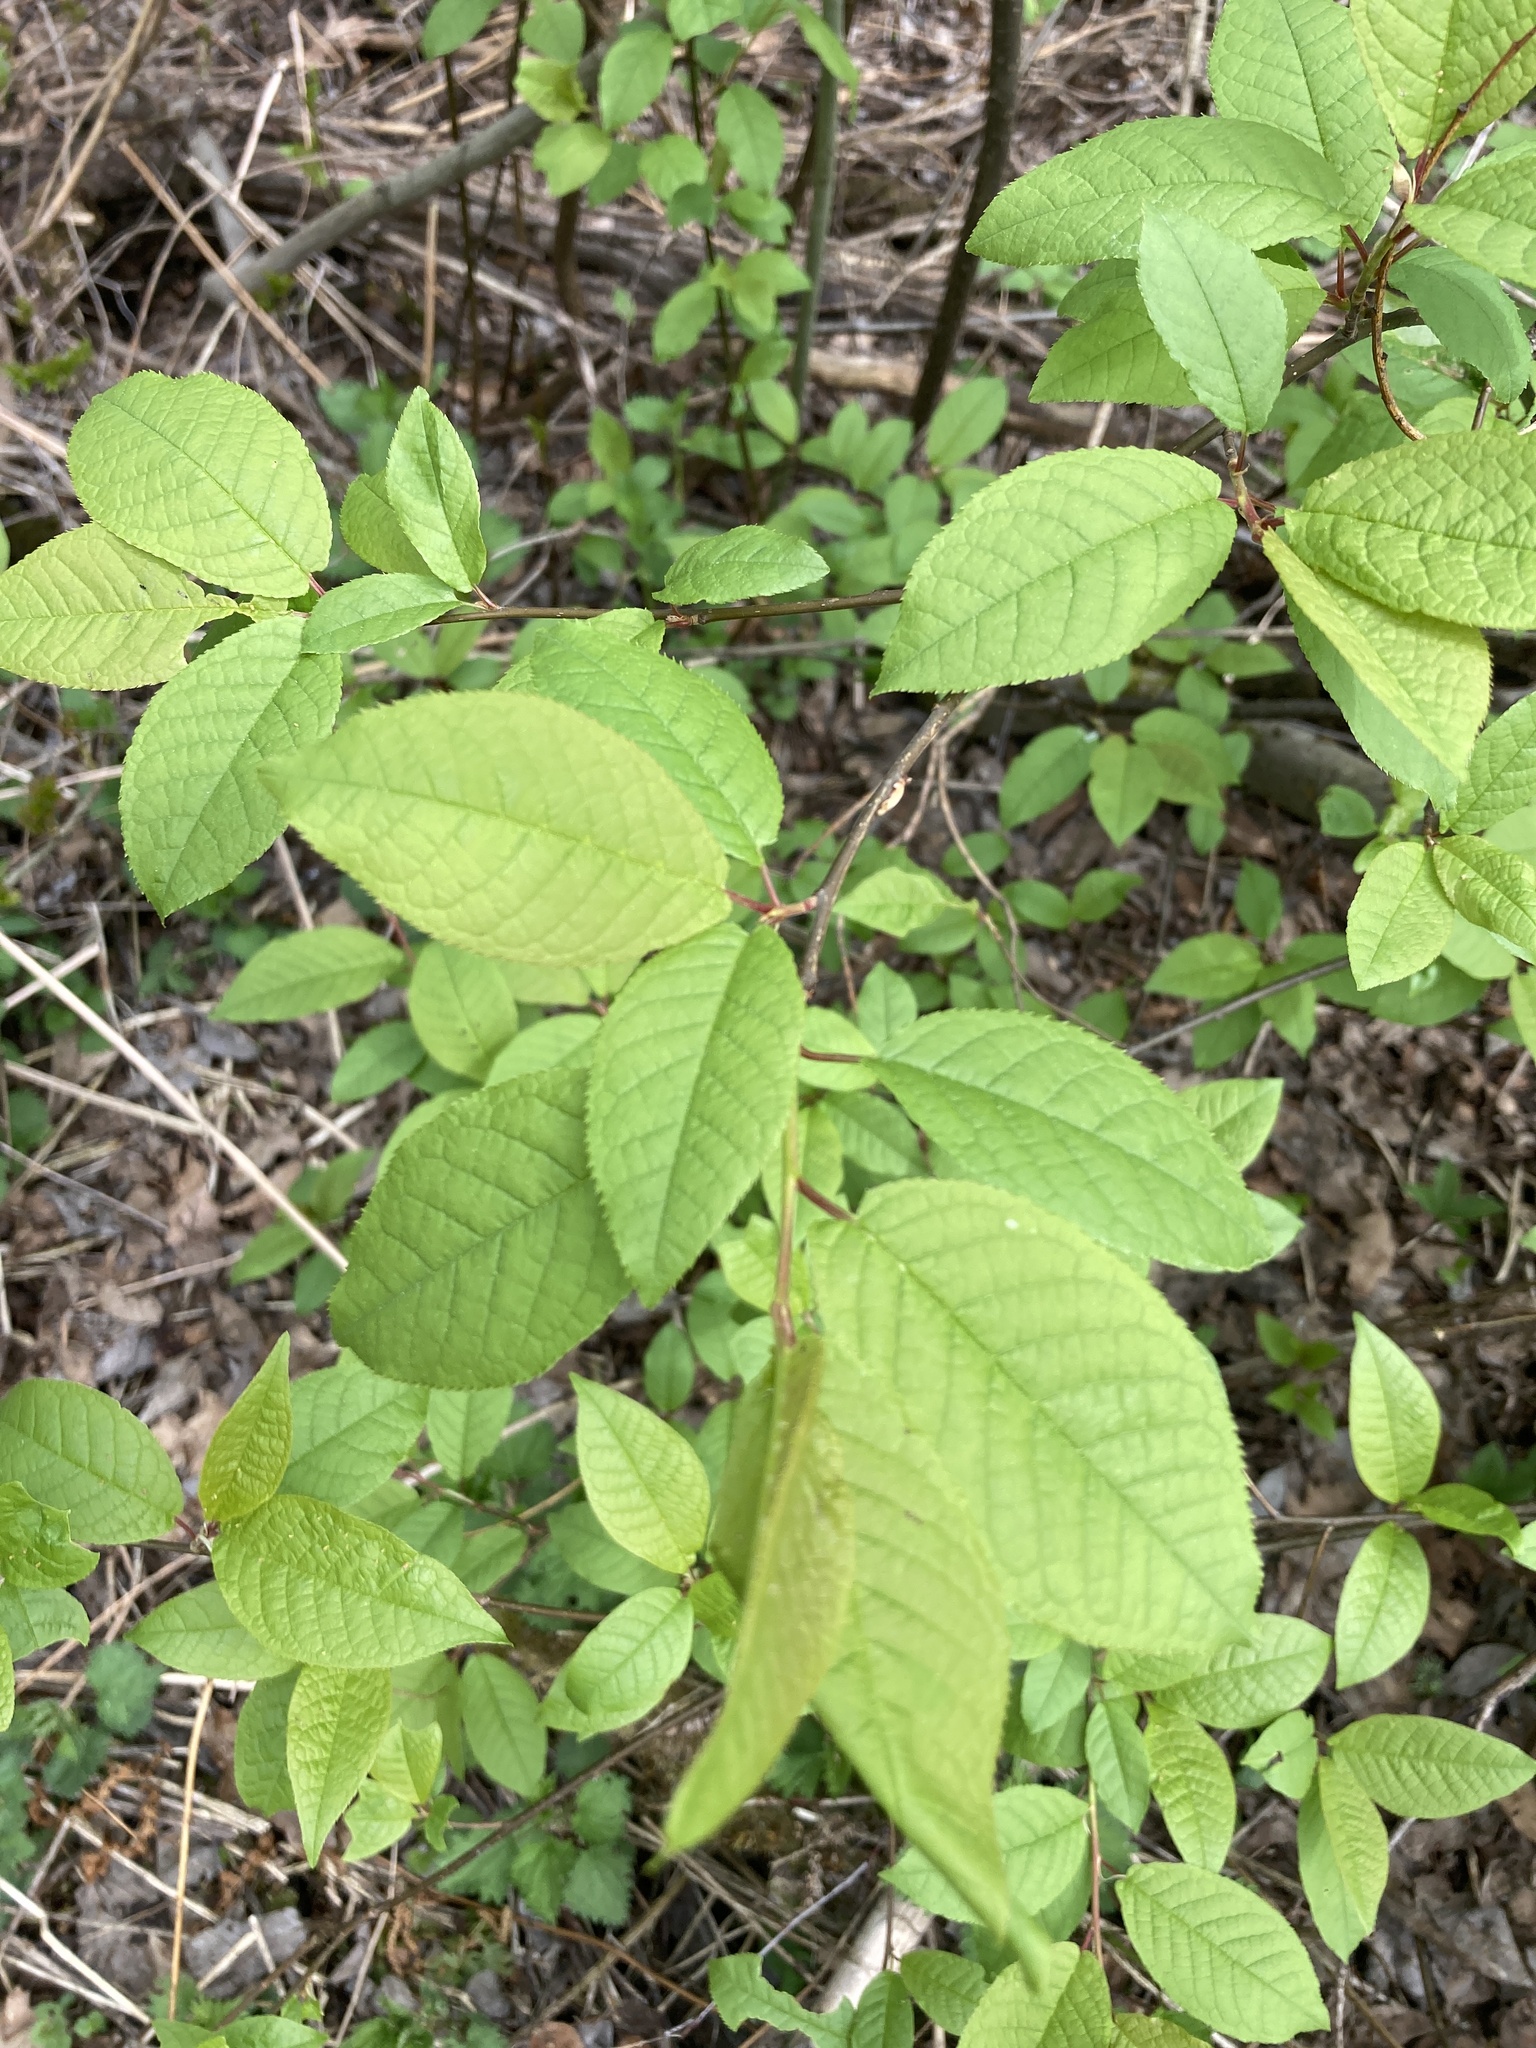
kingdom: Plantae
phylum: Tracheophyta
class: Magnoliopsida
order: Rosales
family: Rosaceae
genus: Prunus
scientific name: Prunus padus
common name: Bird cherry
